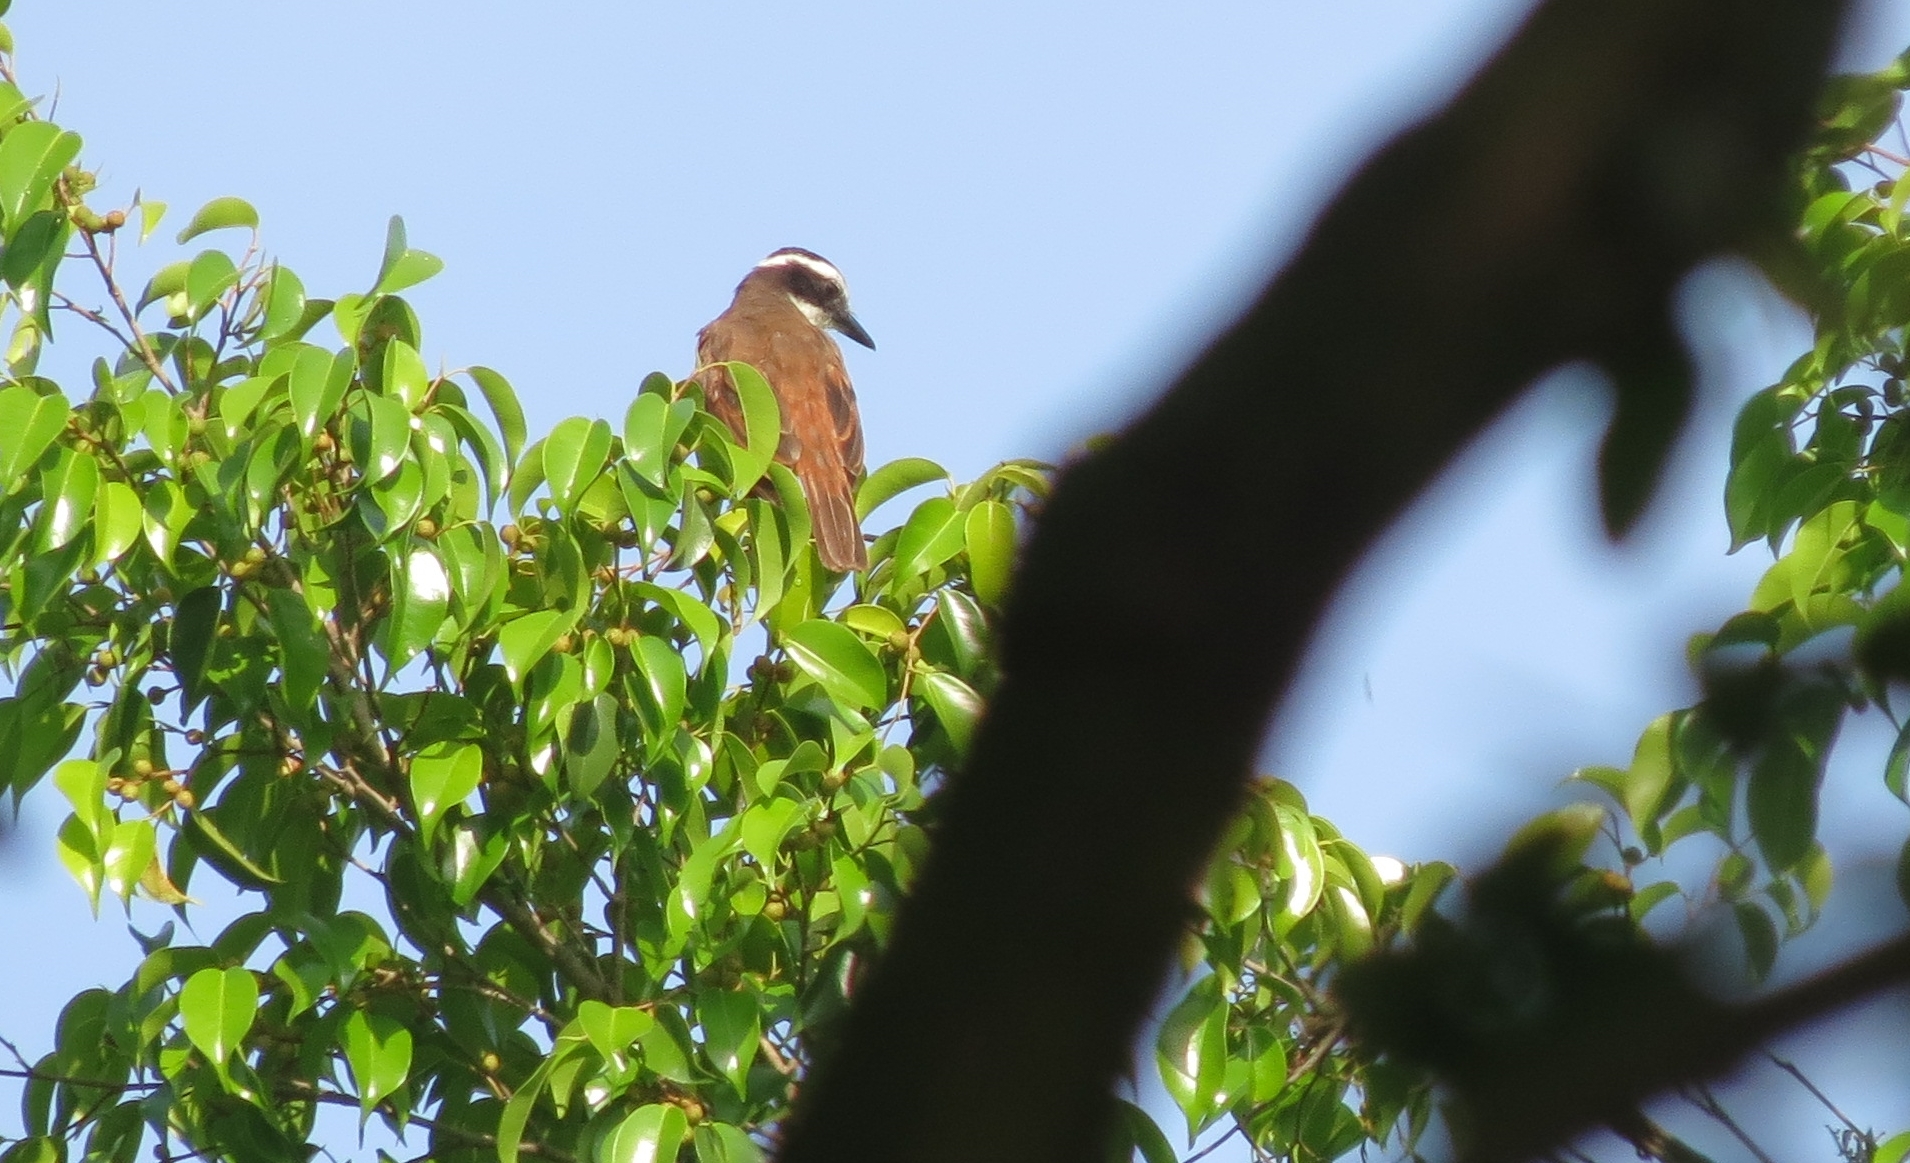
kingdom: Animalia
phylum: Chordata
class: Aves
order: Passeriformes
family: Tyrannidae
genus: Pitangus
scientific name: Pitangus sulphuratus
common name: Great kiskadee
